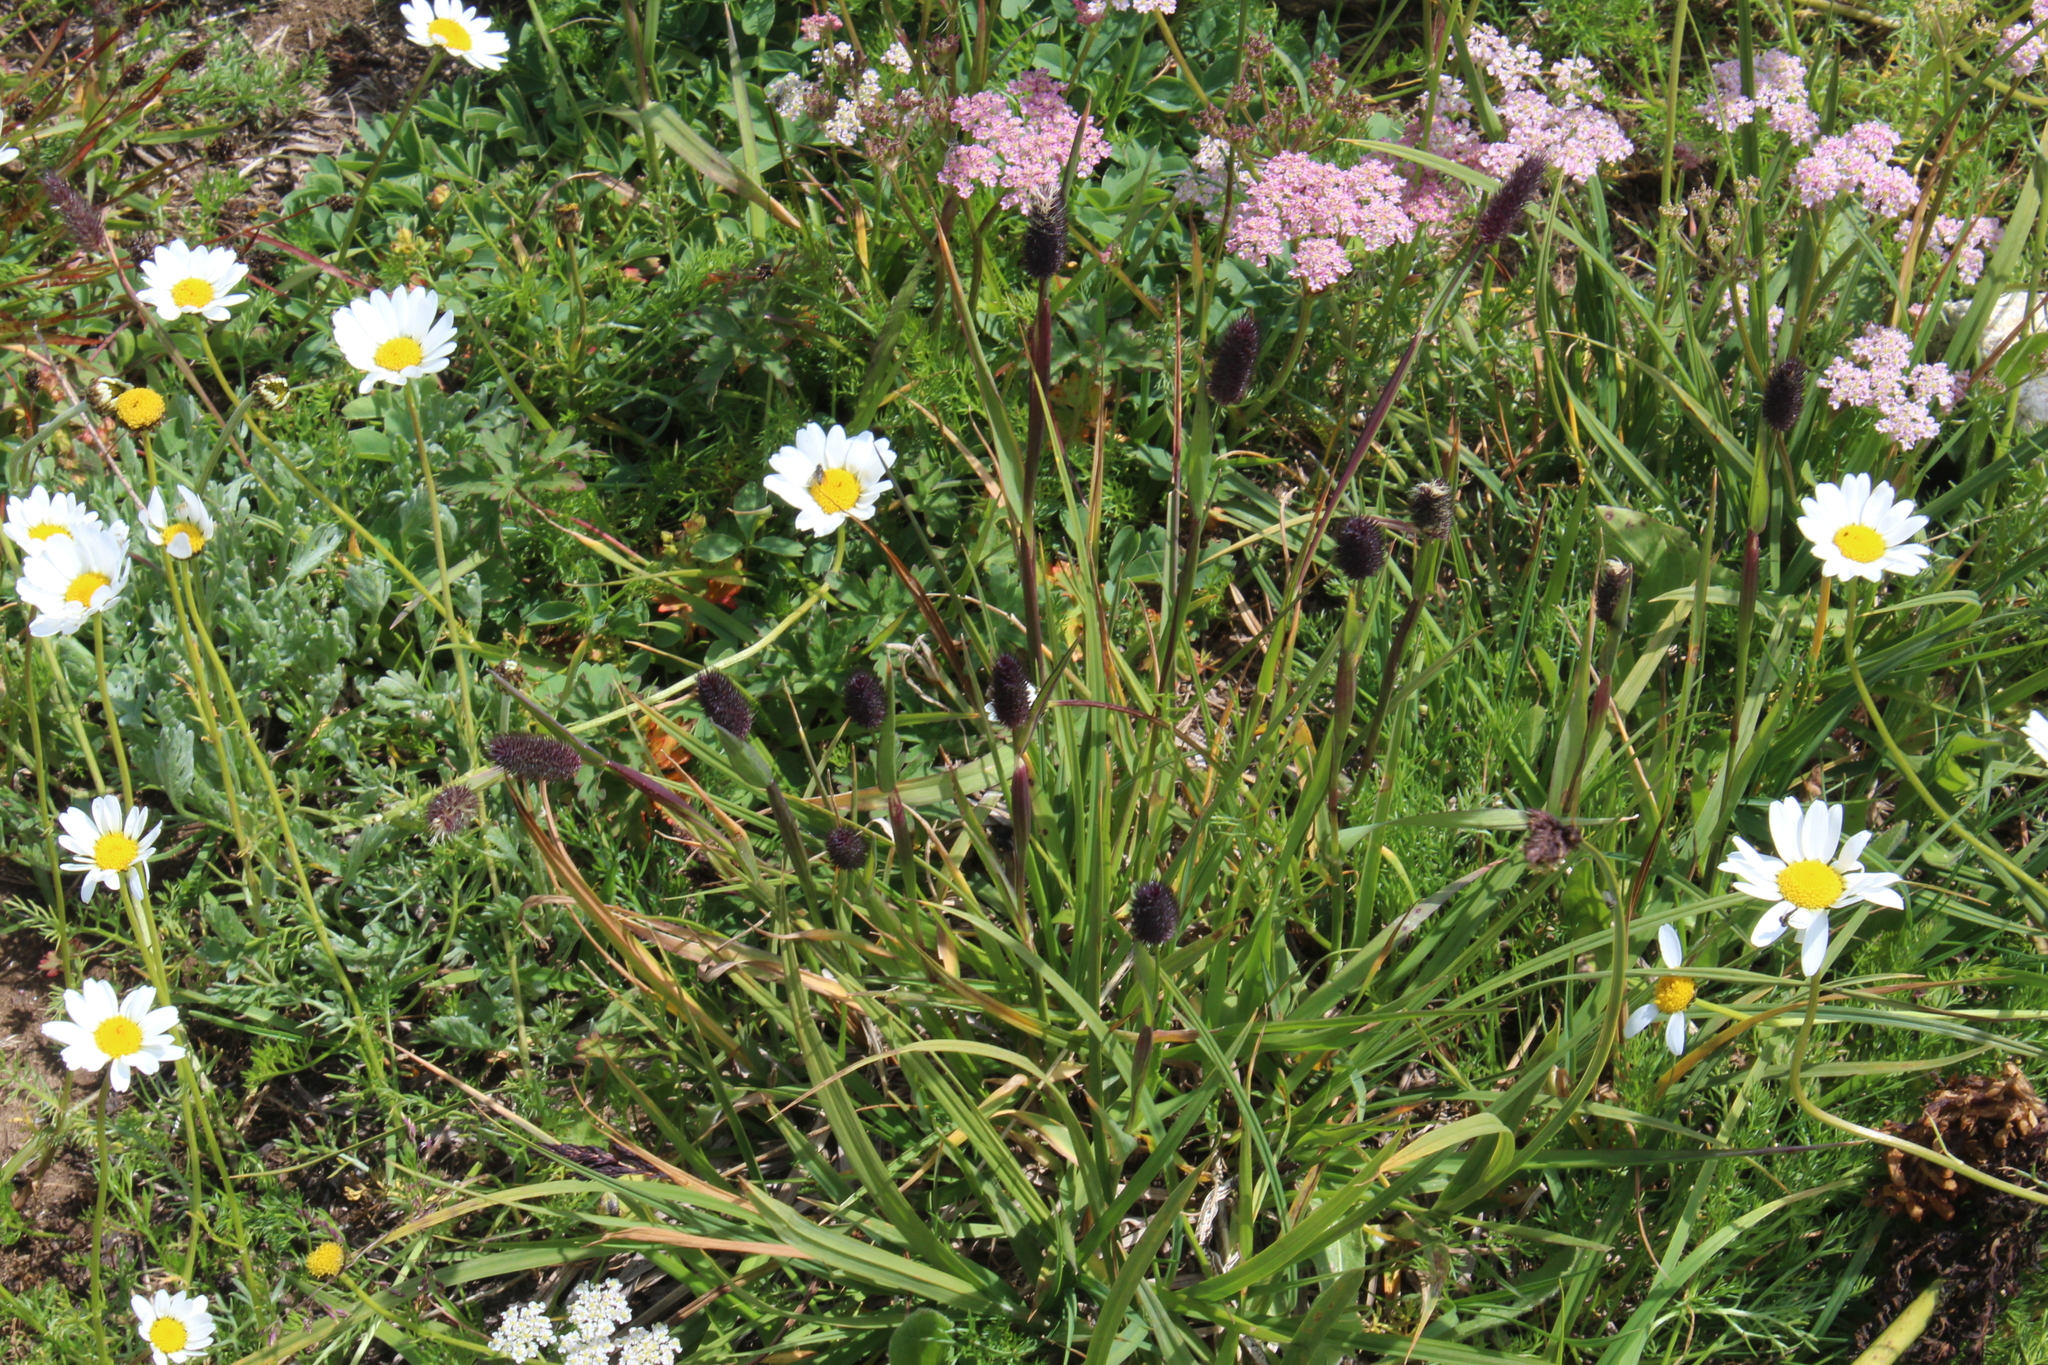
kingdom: Plantae
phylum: Tracheophyta
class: Liliopsida
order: Poales
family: Poaceae
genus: Phleum
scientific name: Phleum alpinum
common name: Alpine cat's-tail
